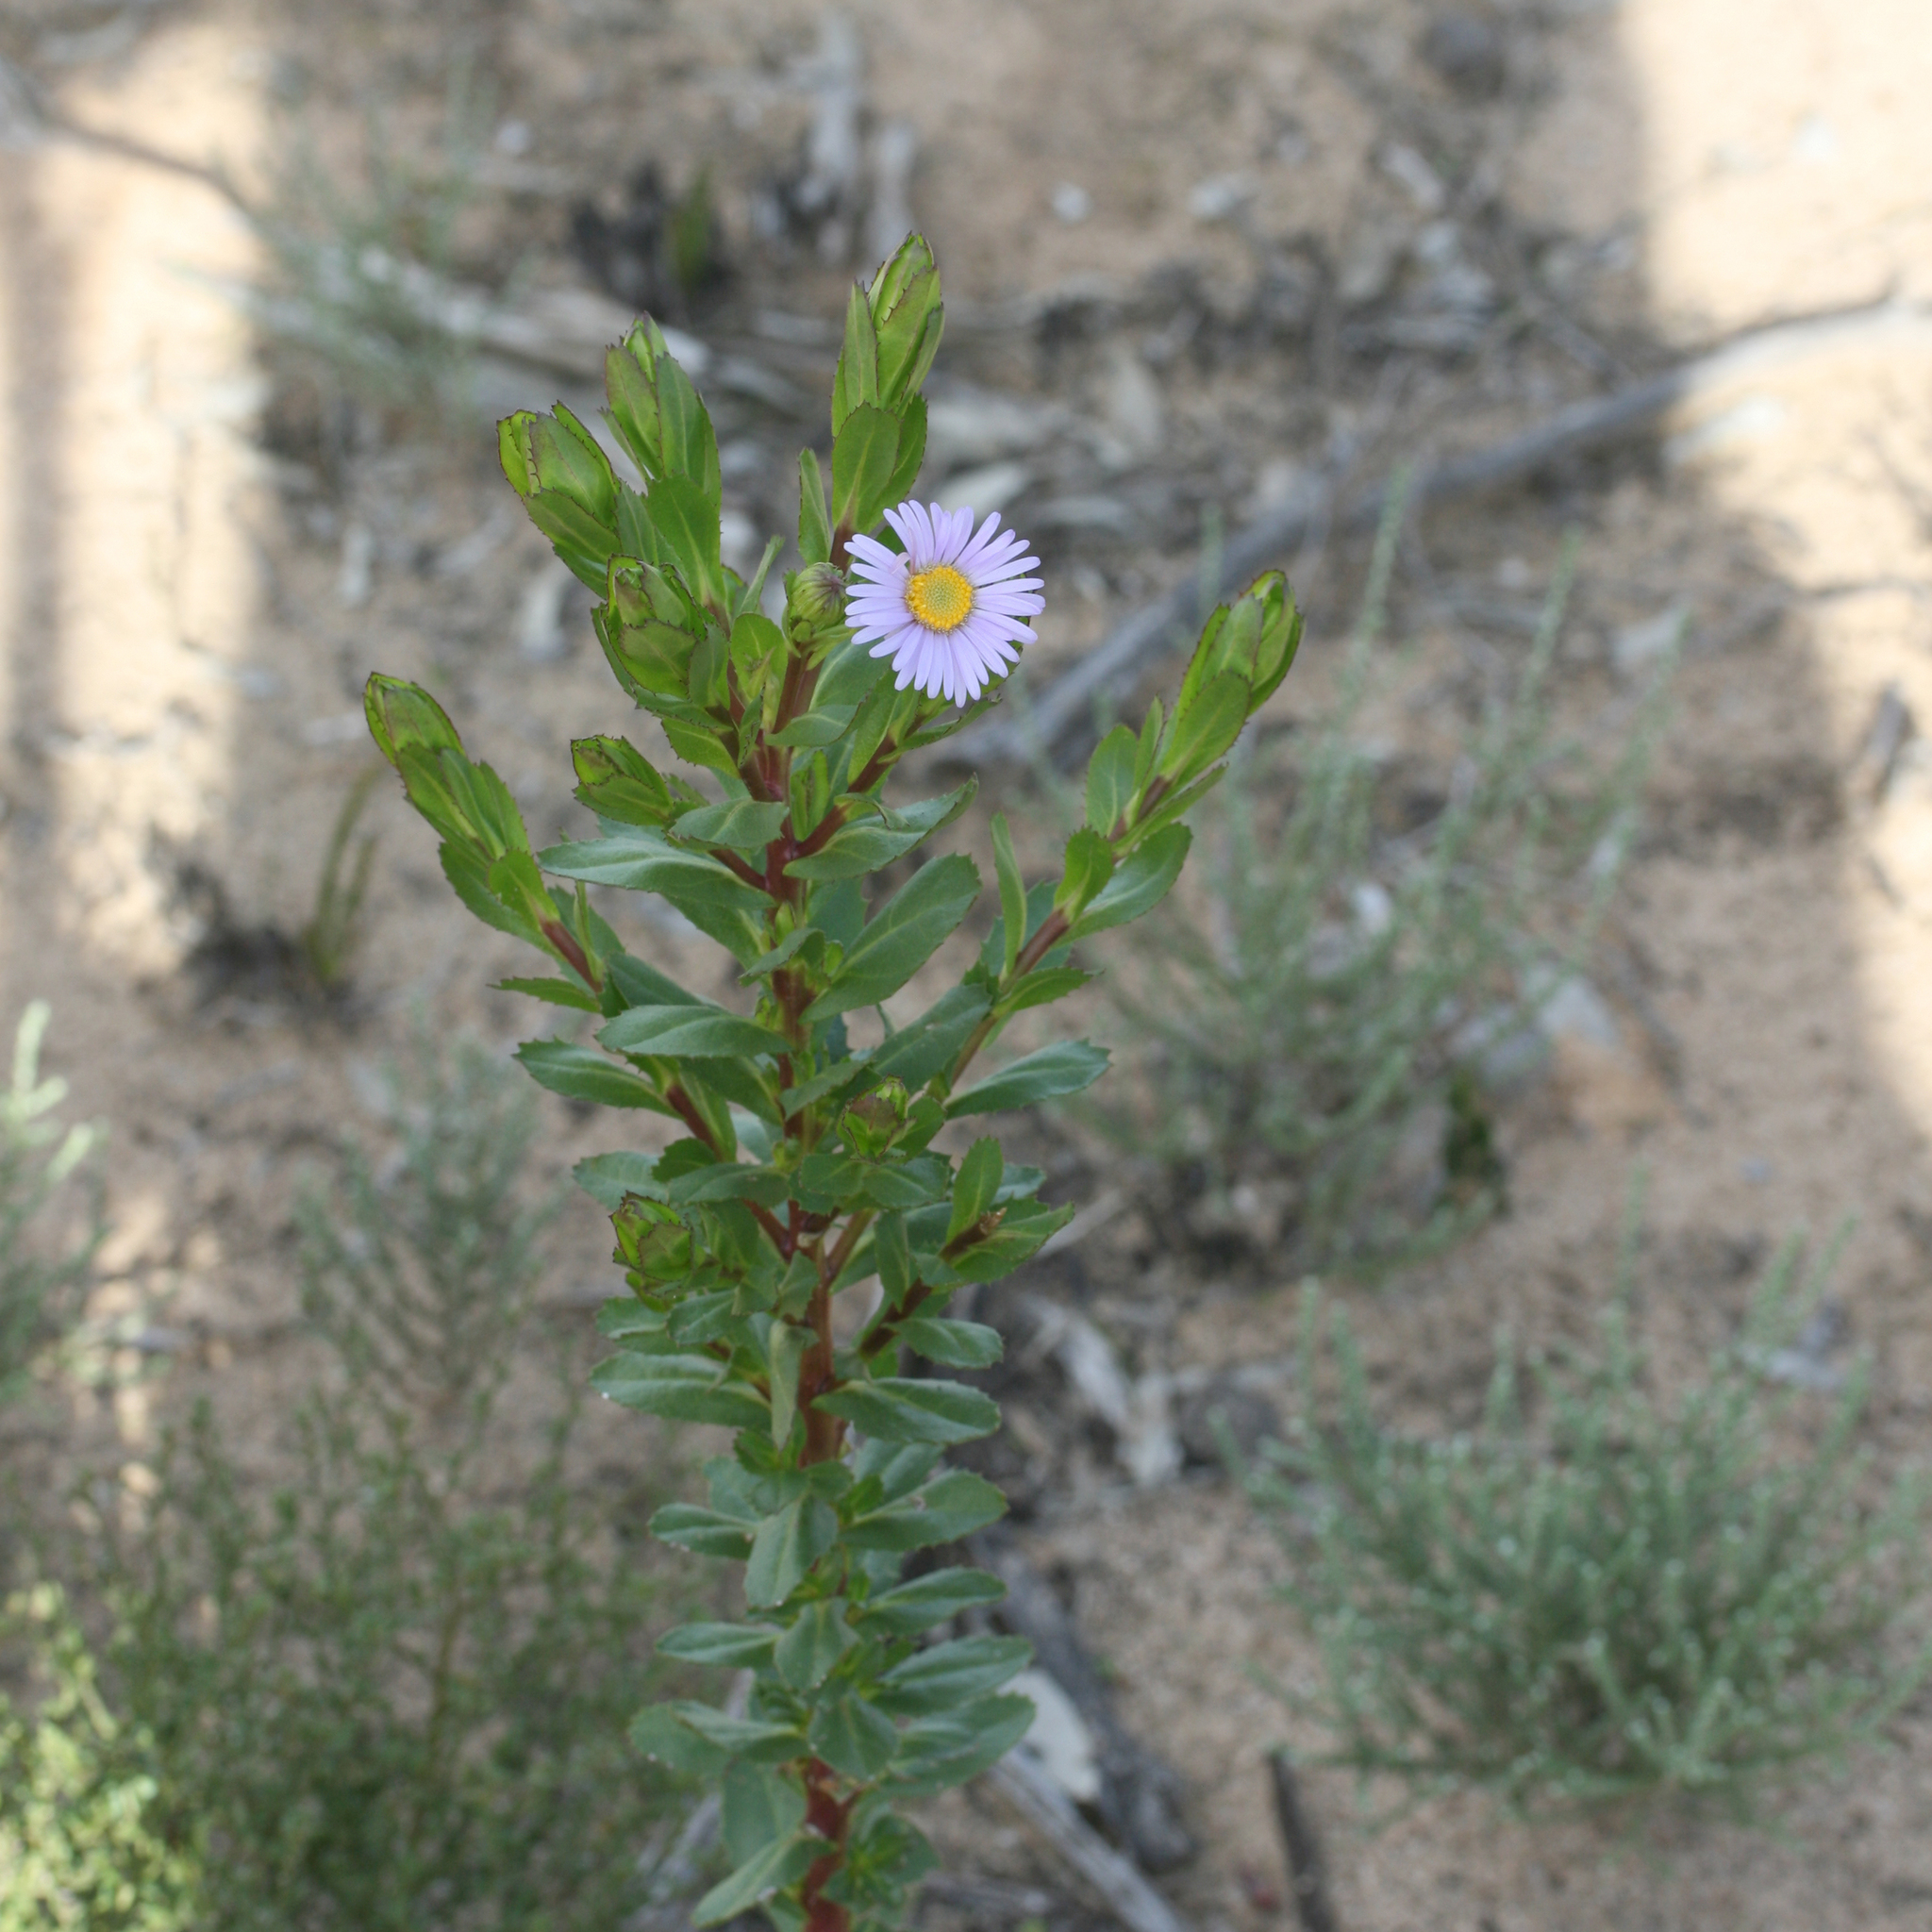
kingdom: Plantae
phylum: Tracheophyta
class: Magnoliopsida
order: Asterales
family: Asteraceae
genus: Muellerolaria
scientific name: Muellerolaria rudis
